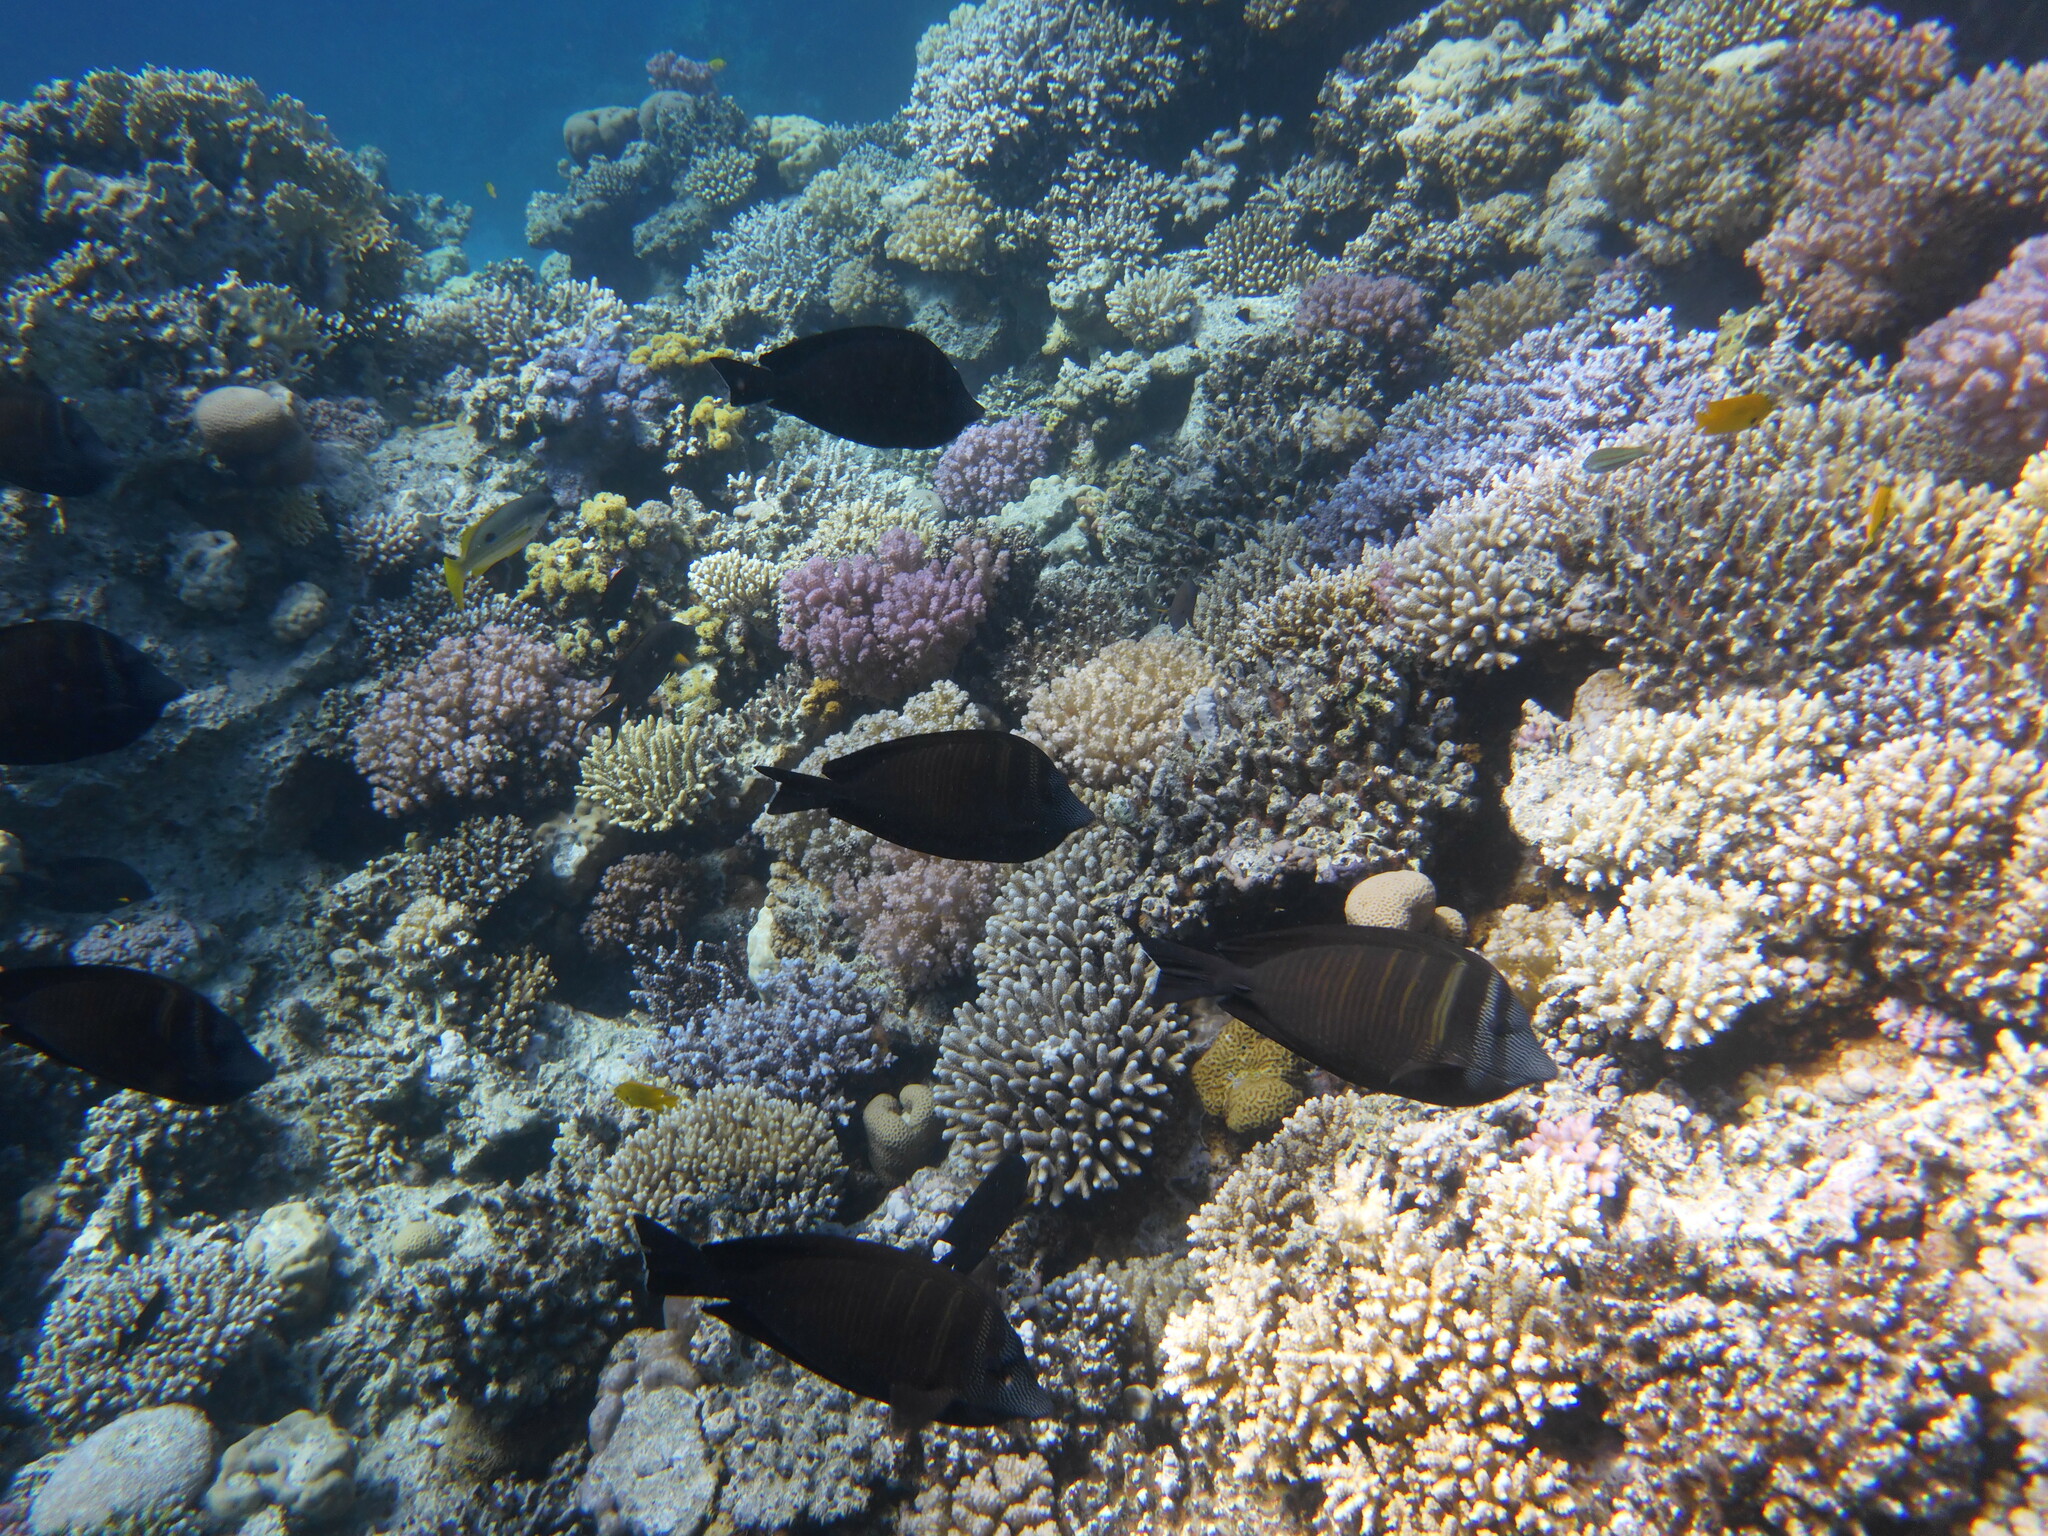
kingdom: Animalia
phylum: Chordata
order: Perciformes
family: Acanthuridae
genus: Zebrasoma
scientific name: Zebrasoma desjardinii
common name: Desjardin's sailfin tang
